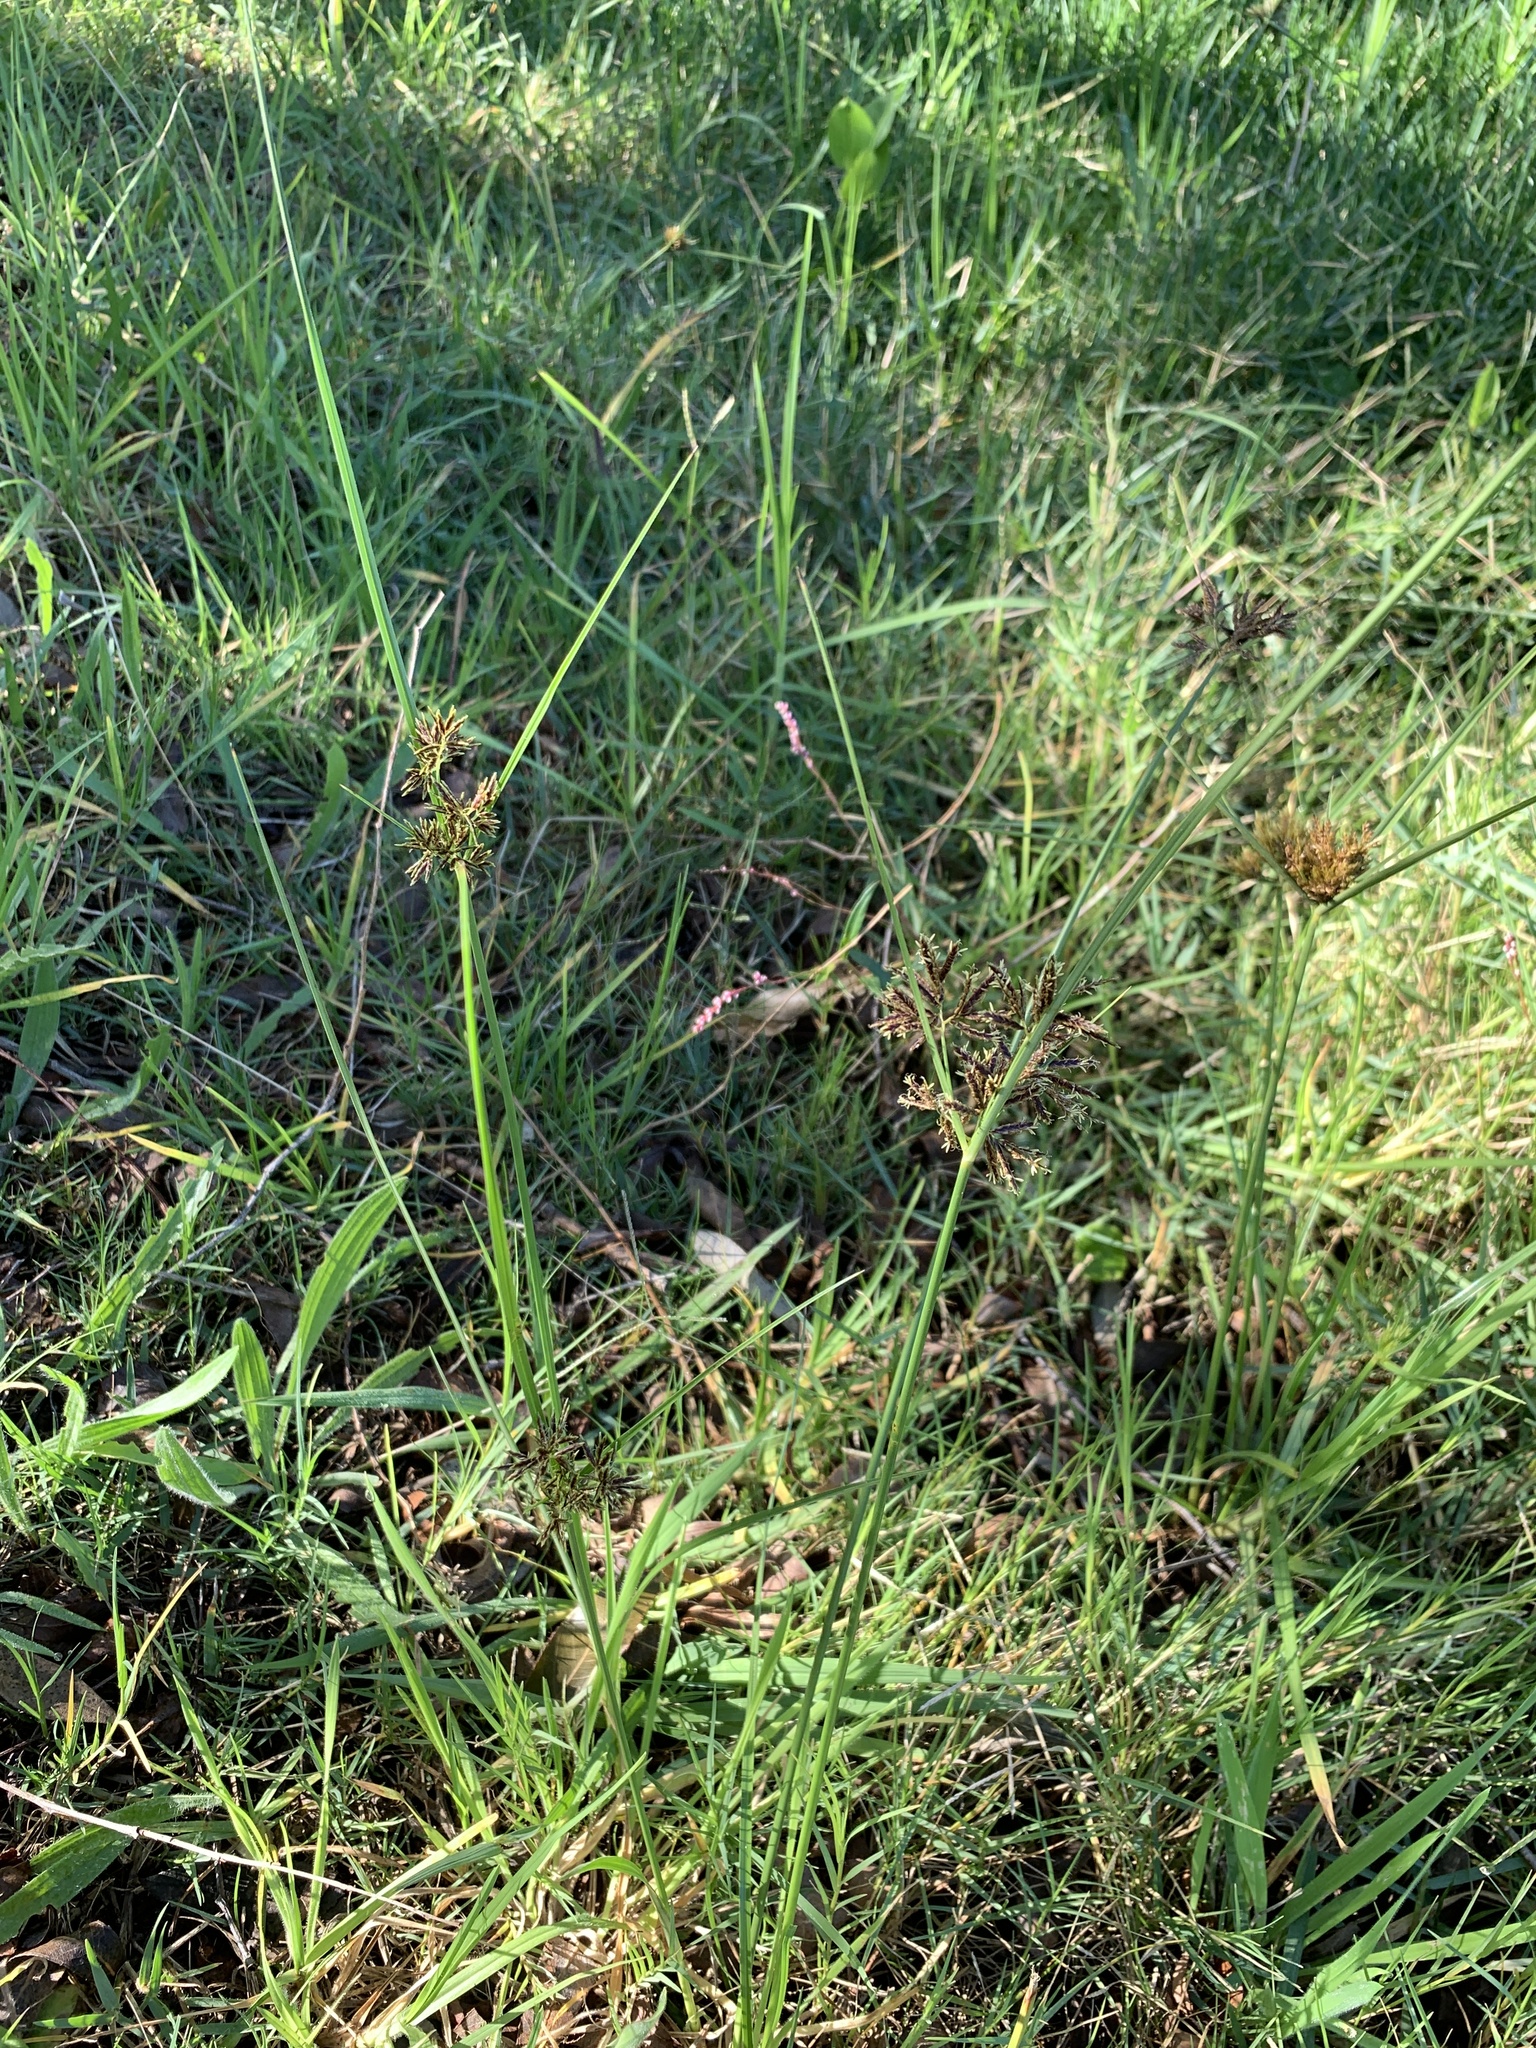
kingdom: Plantae
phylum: Tracheophyta
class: Liliopsida
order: Poales
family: Cyperaceae
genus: Cyperus
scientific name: Cyperus longus
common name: Galingale
